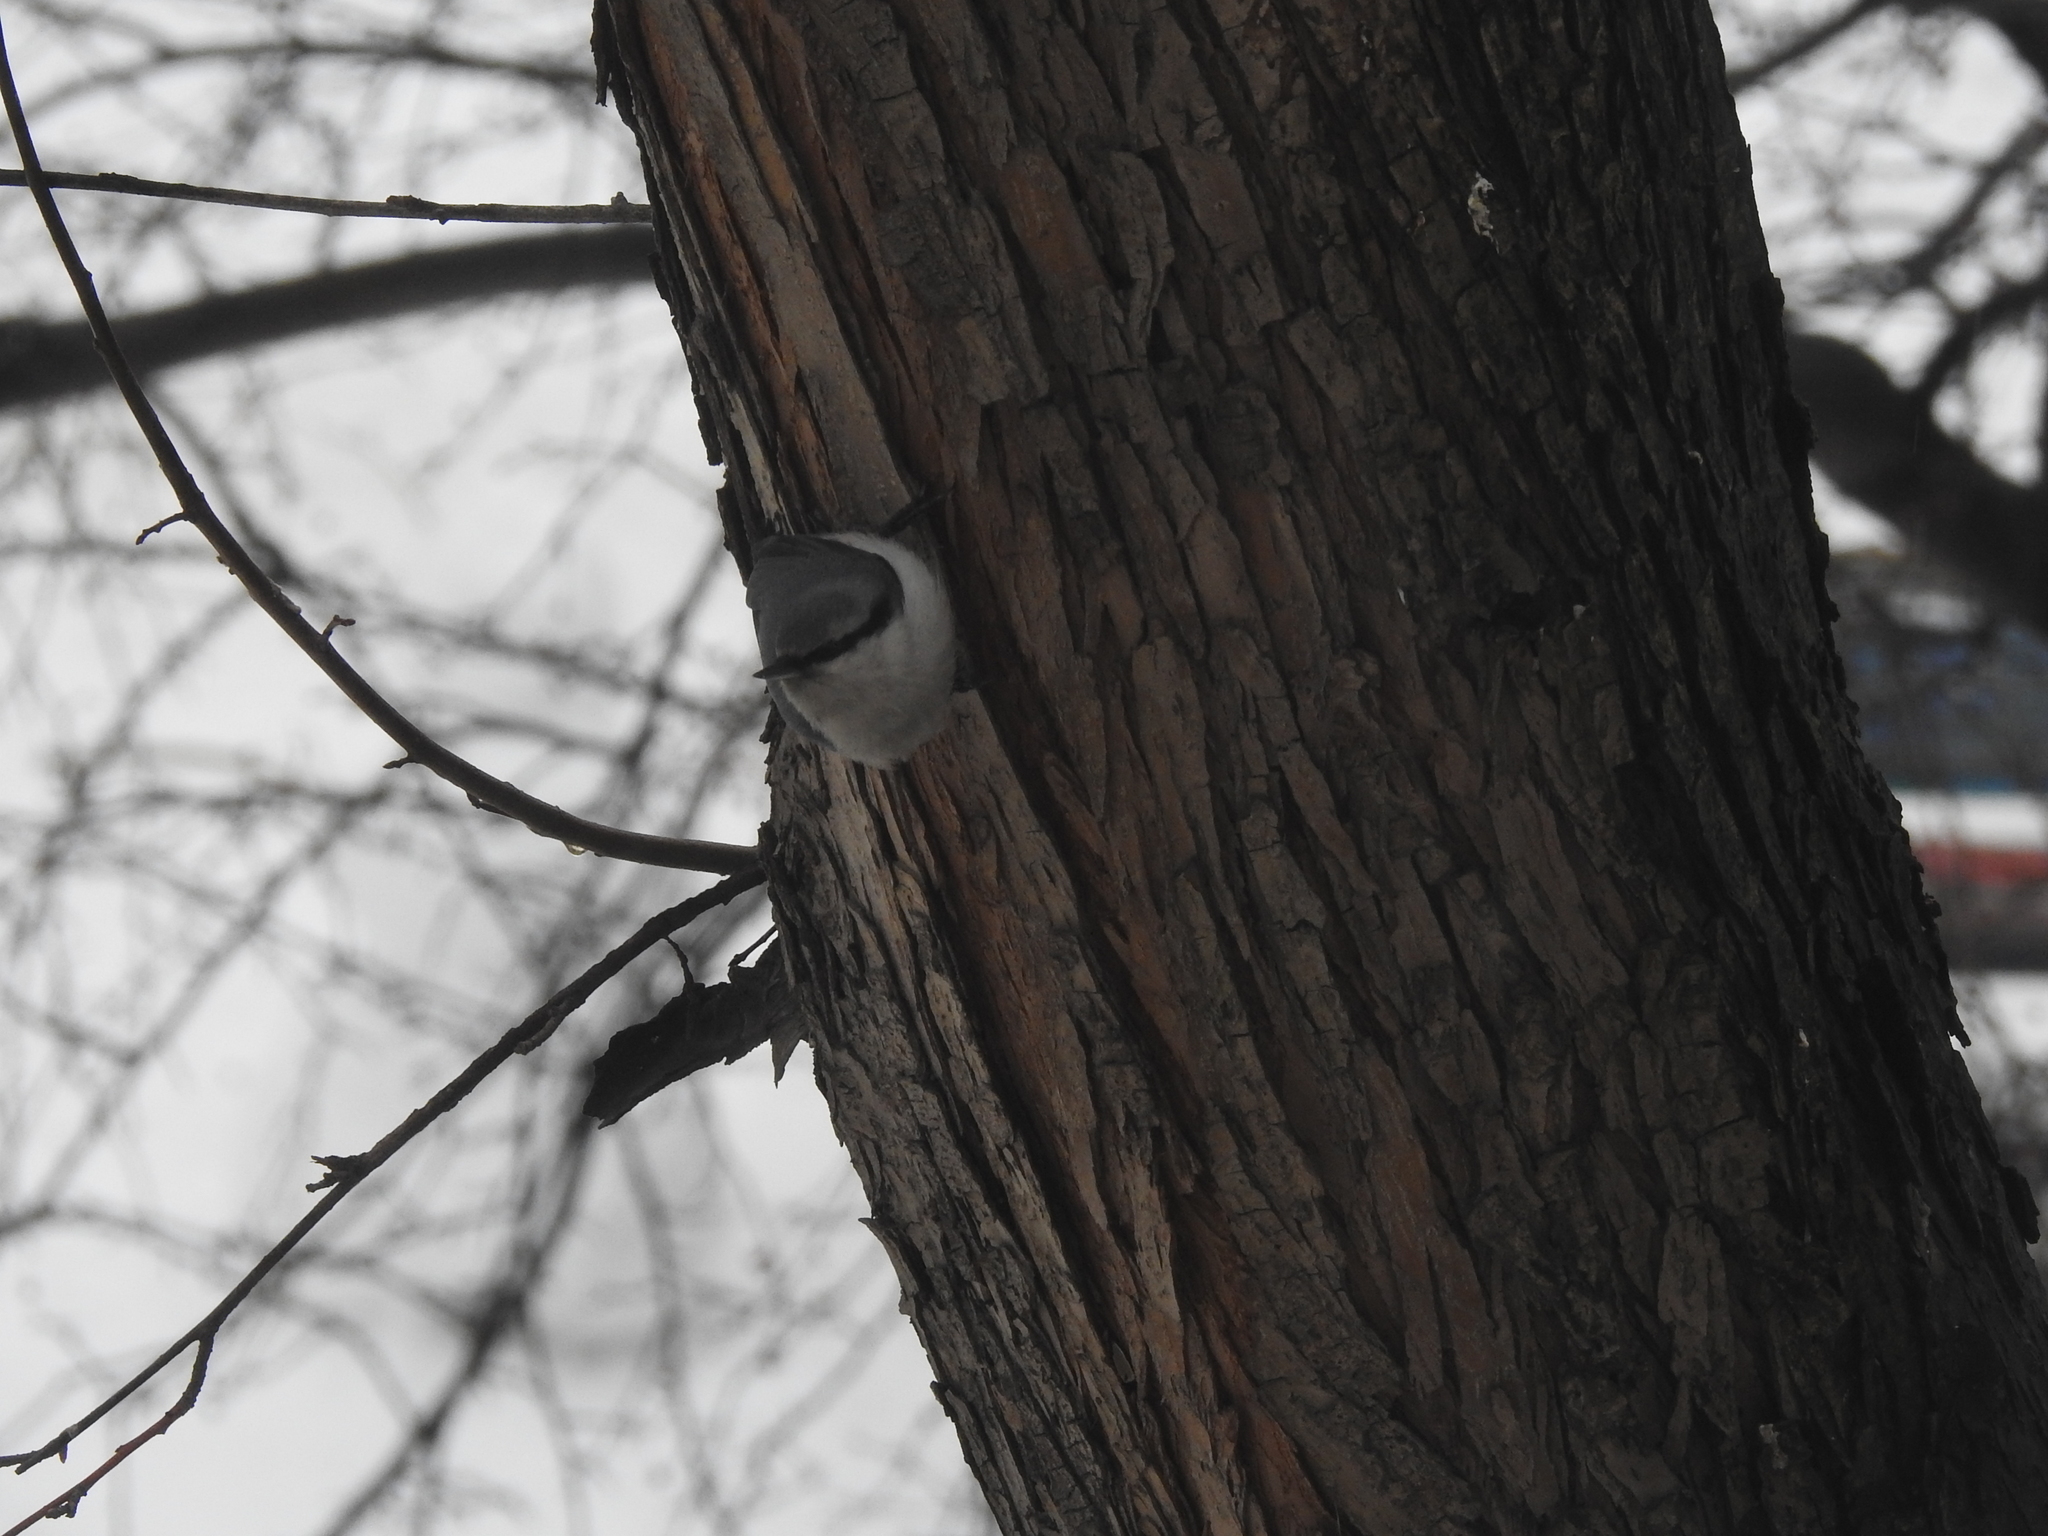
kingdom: Animalia
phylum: Chordata
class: Aves
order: Passeriformes
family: Sittidae
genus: Sitta
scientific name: Sitta europaea
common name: Eurasian nuthatch
